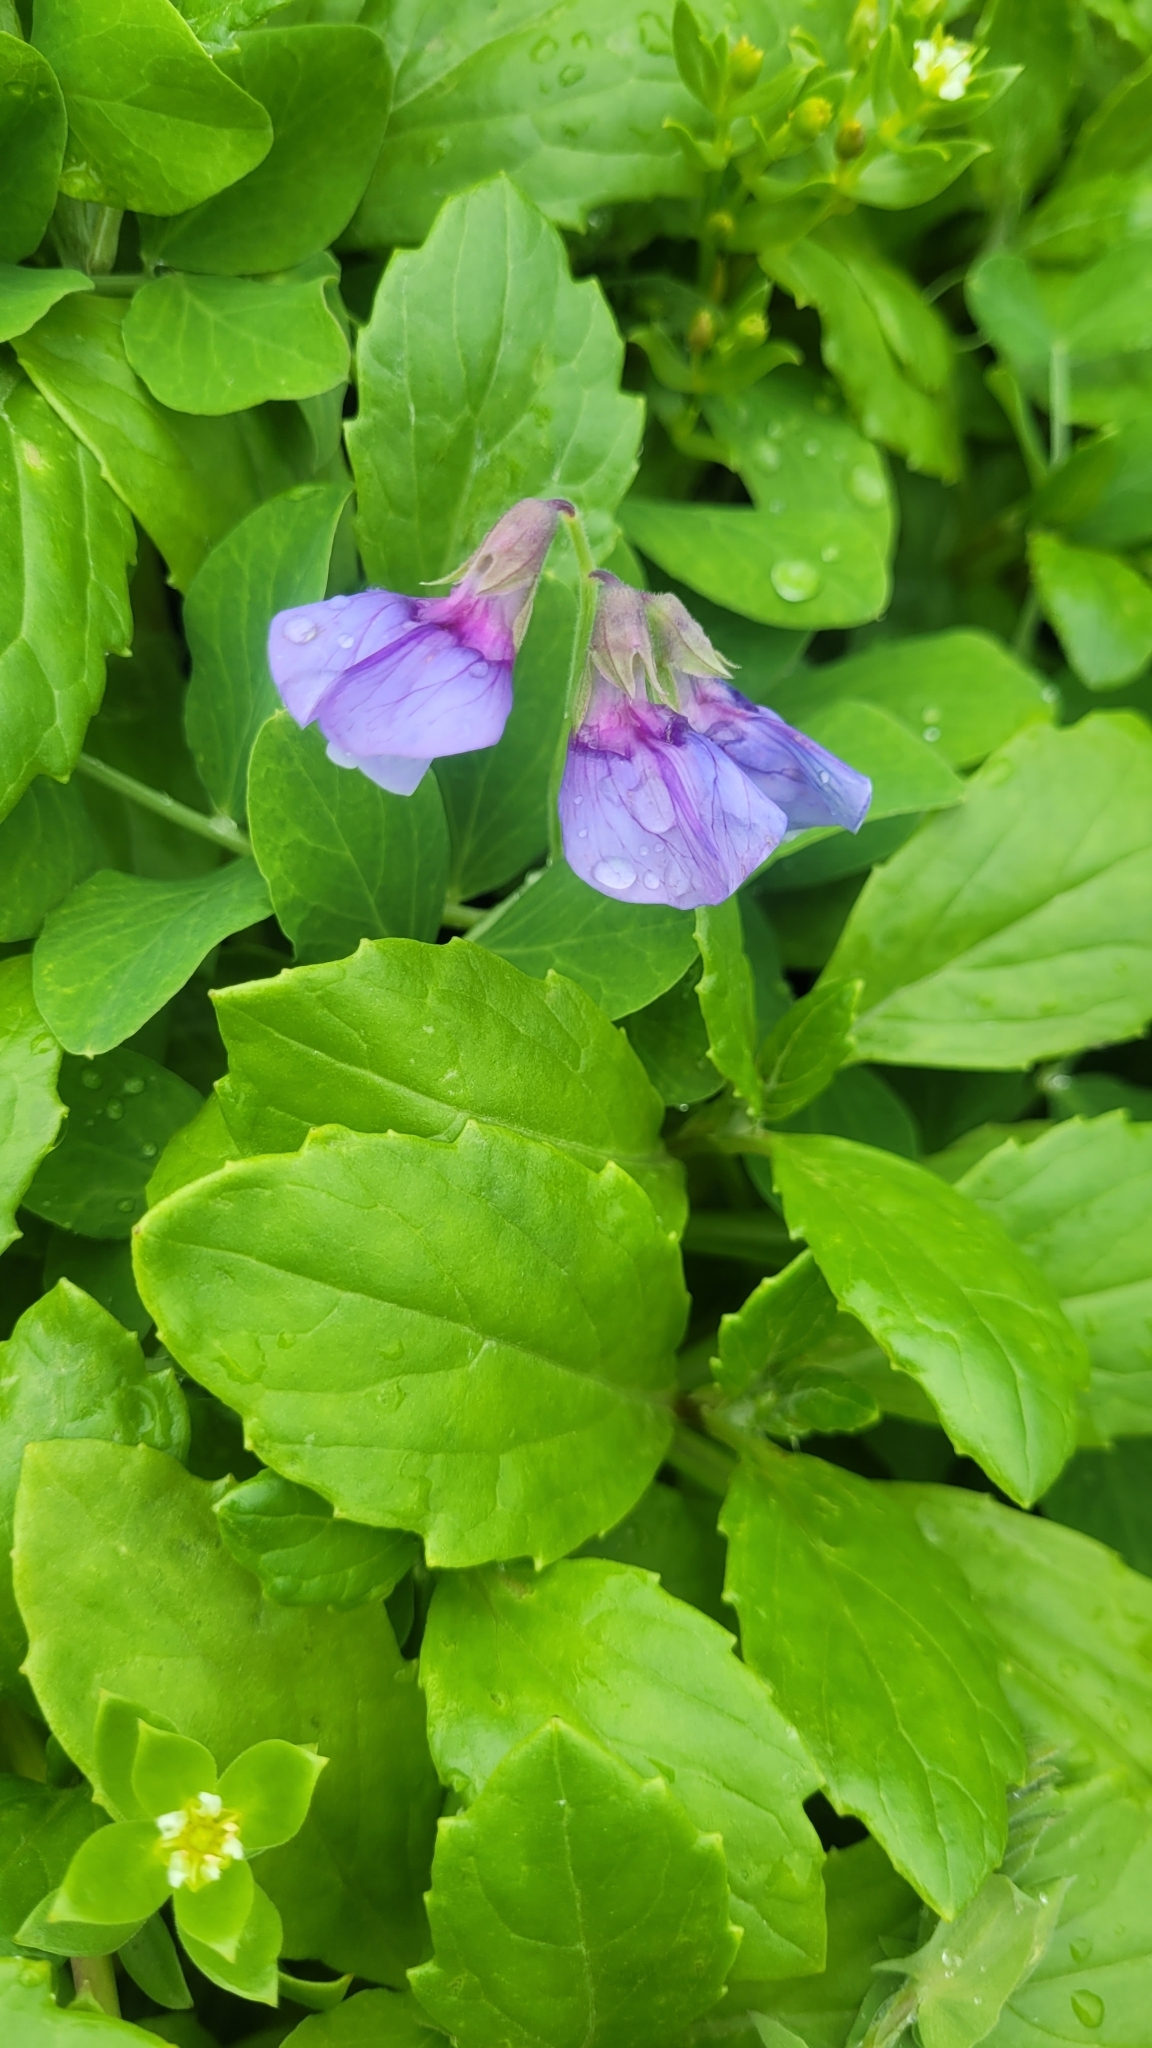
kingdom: Plantae
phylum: Tracheophyta
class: Magnoliopsida
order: Fabales
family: Fabaceae
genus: Lathyrus
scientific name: Lathyrus japonicus
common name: Sea pea
